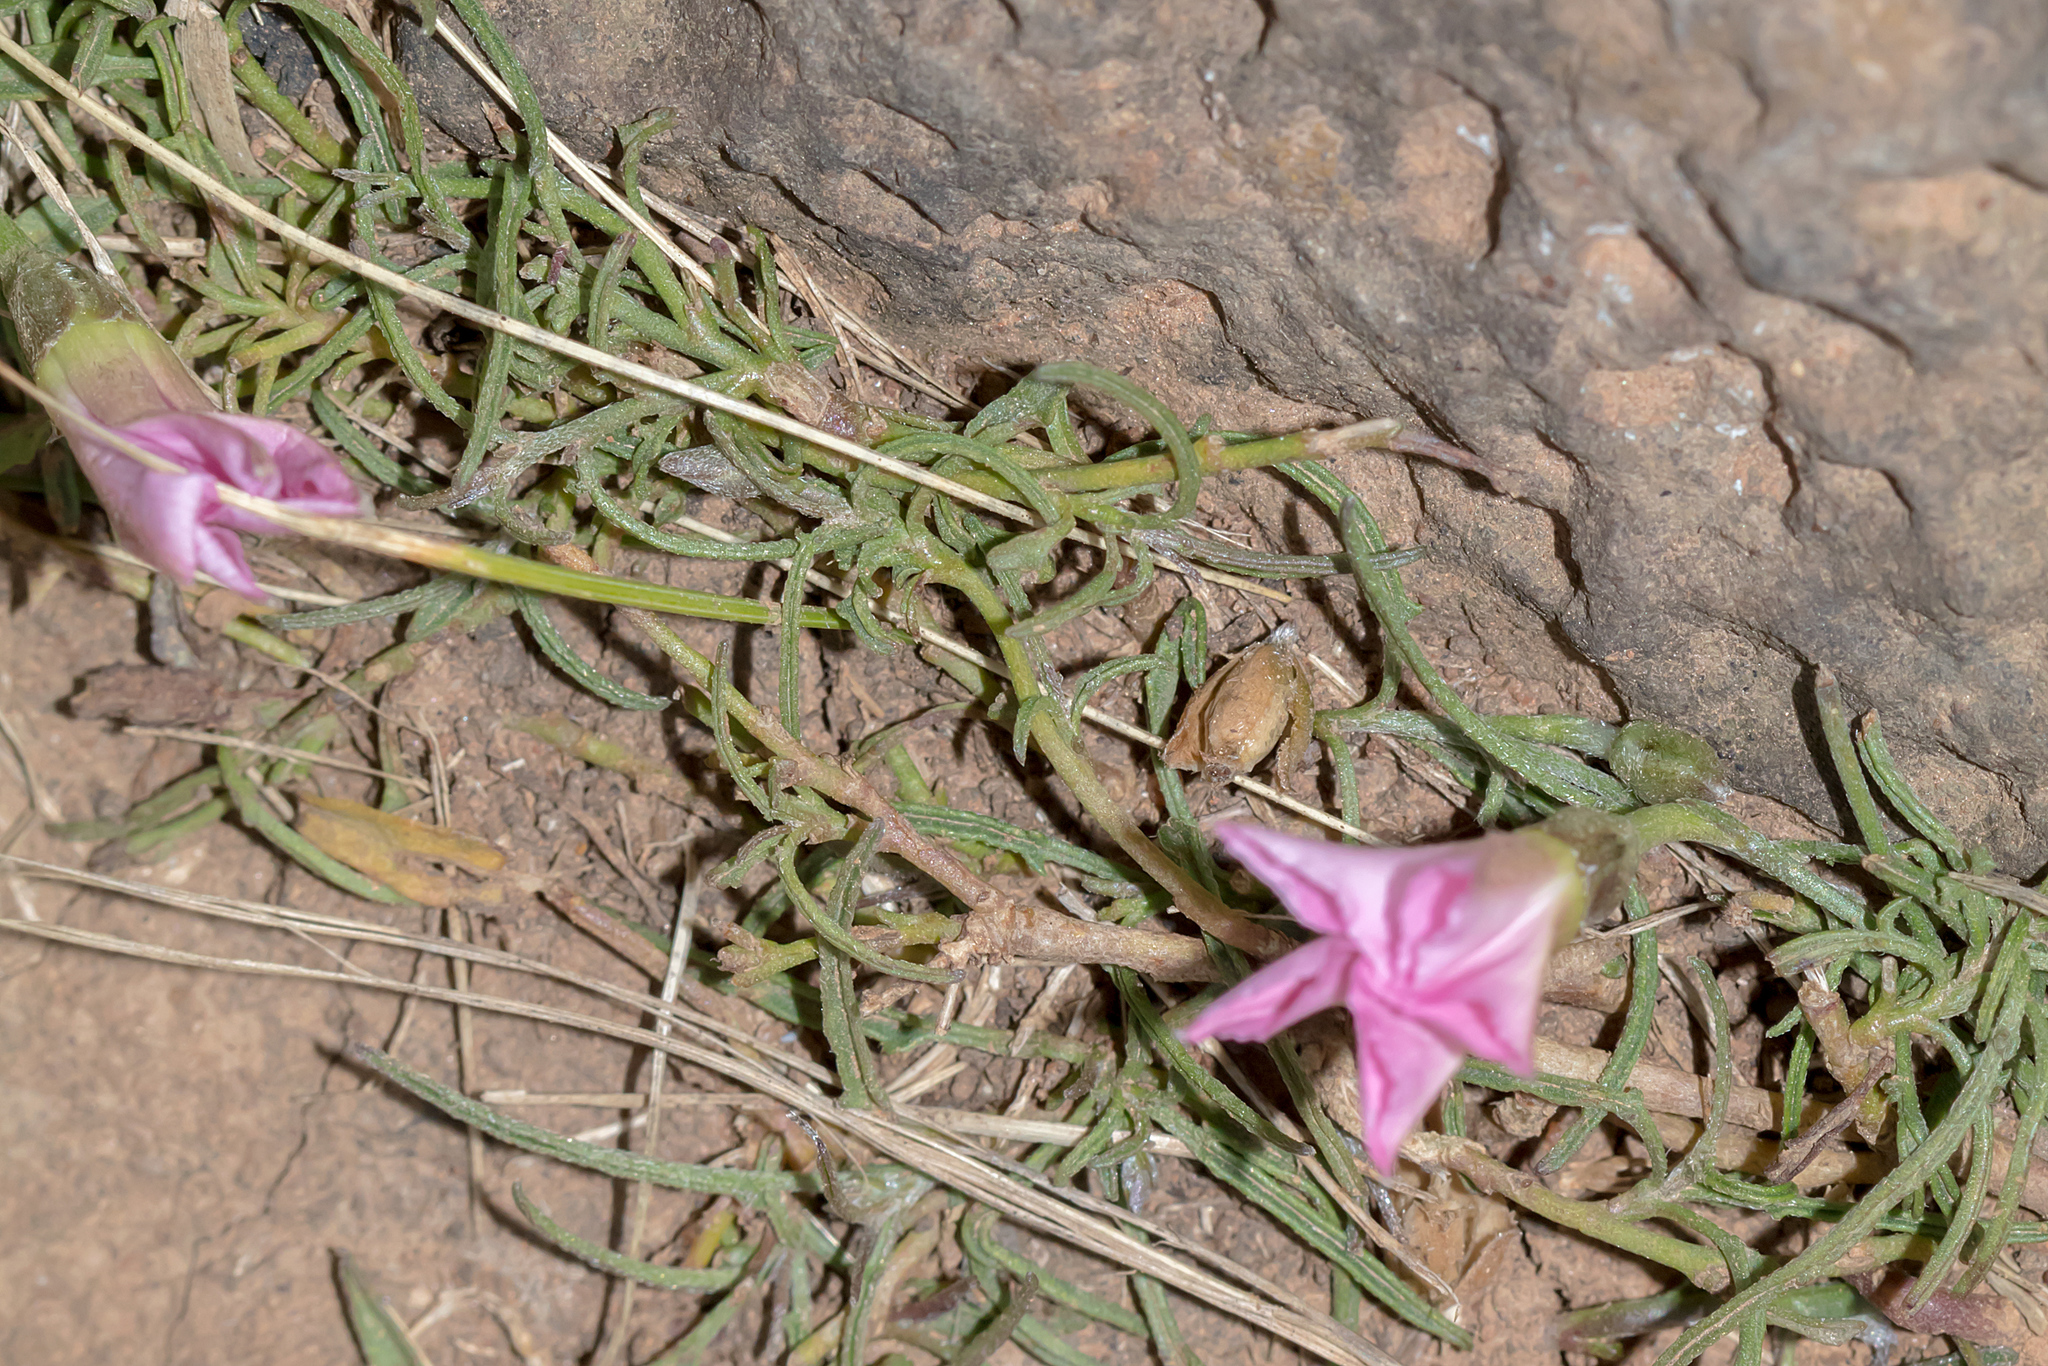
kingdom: Plantae
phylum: Tracheophyta
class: Magnoliopsida
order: Solanales
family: Convolvulaceae
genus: Convolvulus
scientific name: Convolvulus angustissimus
